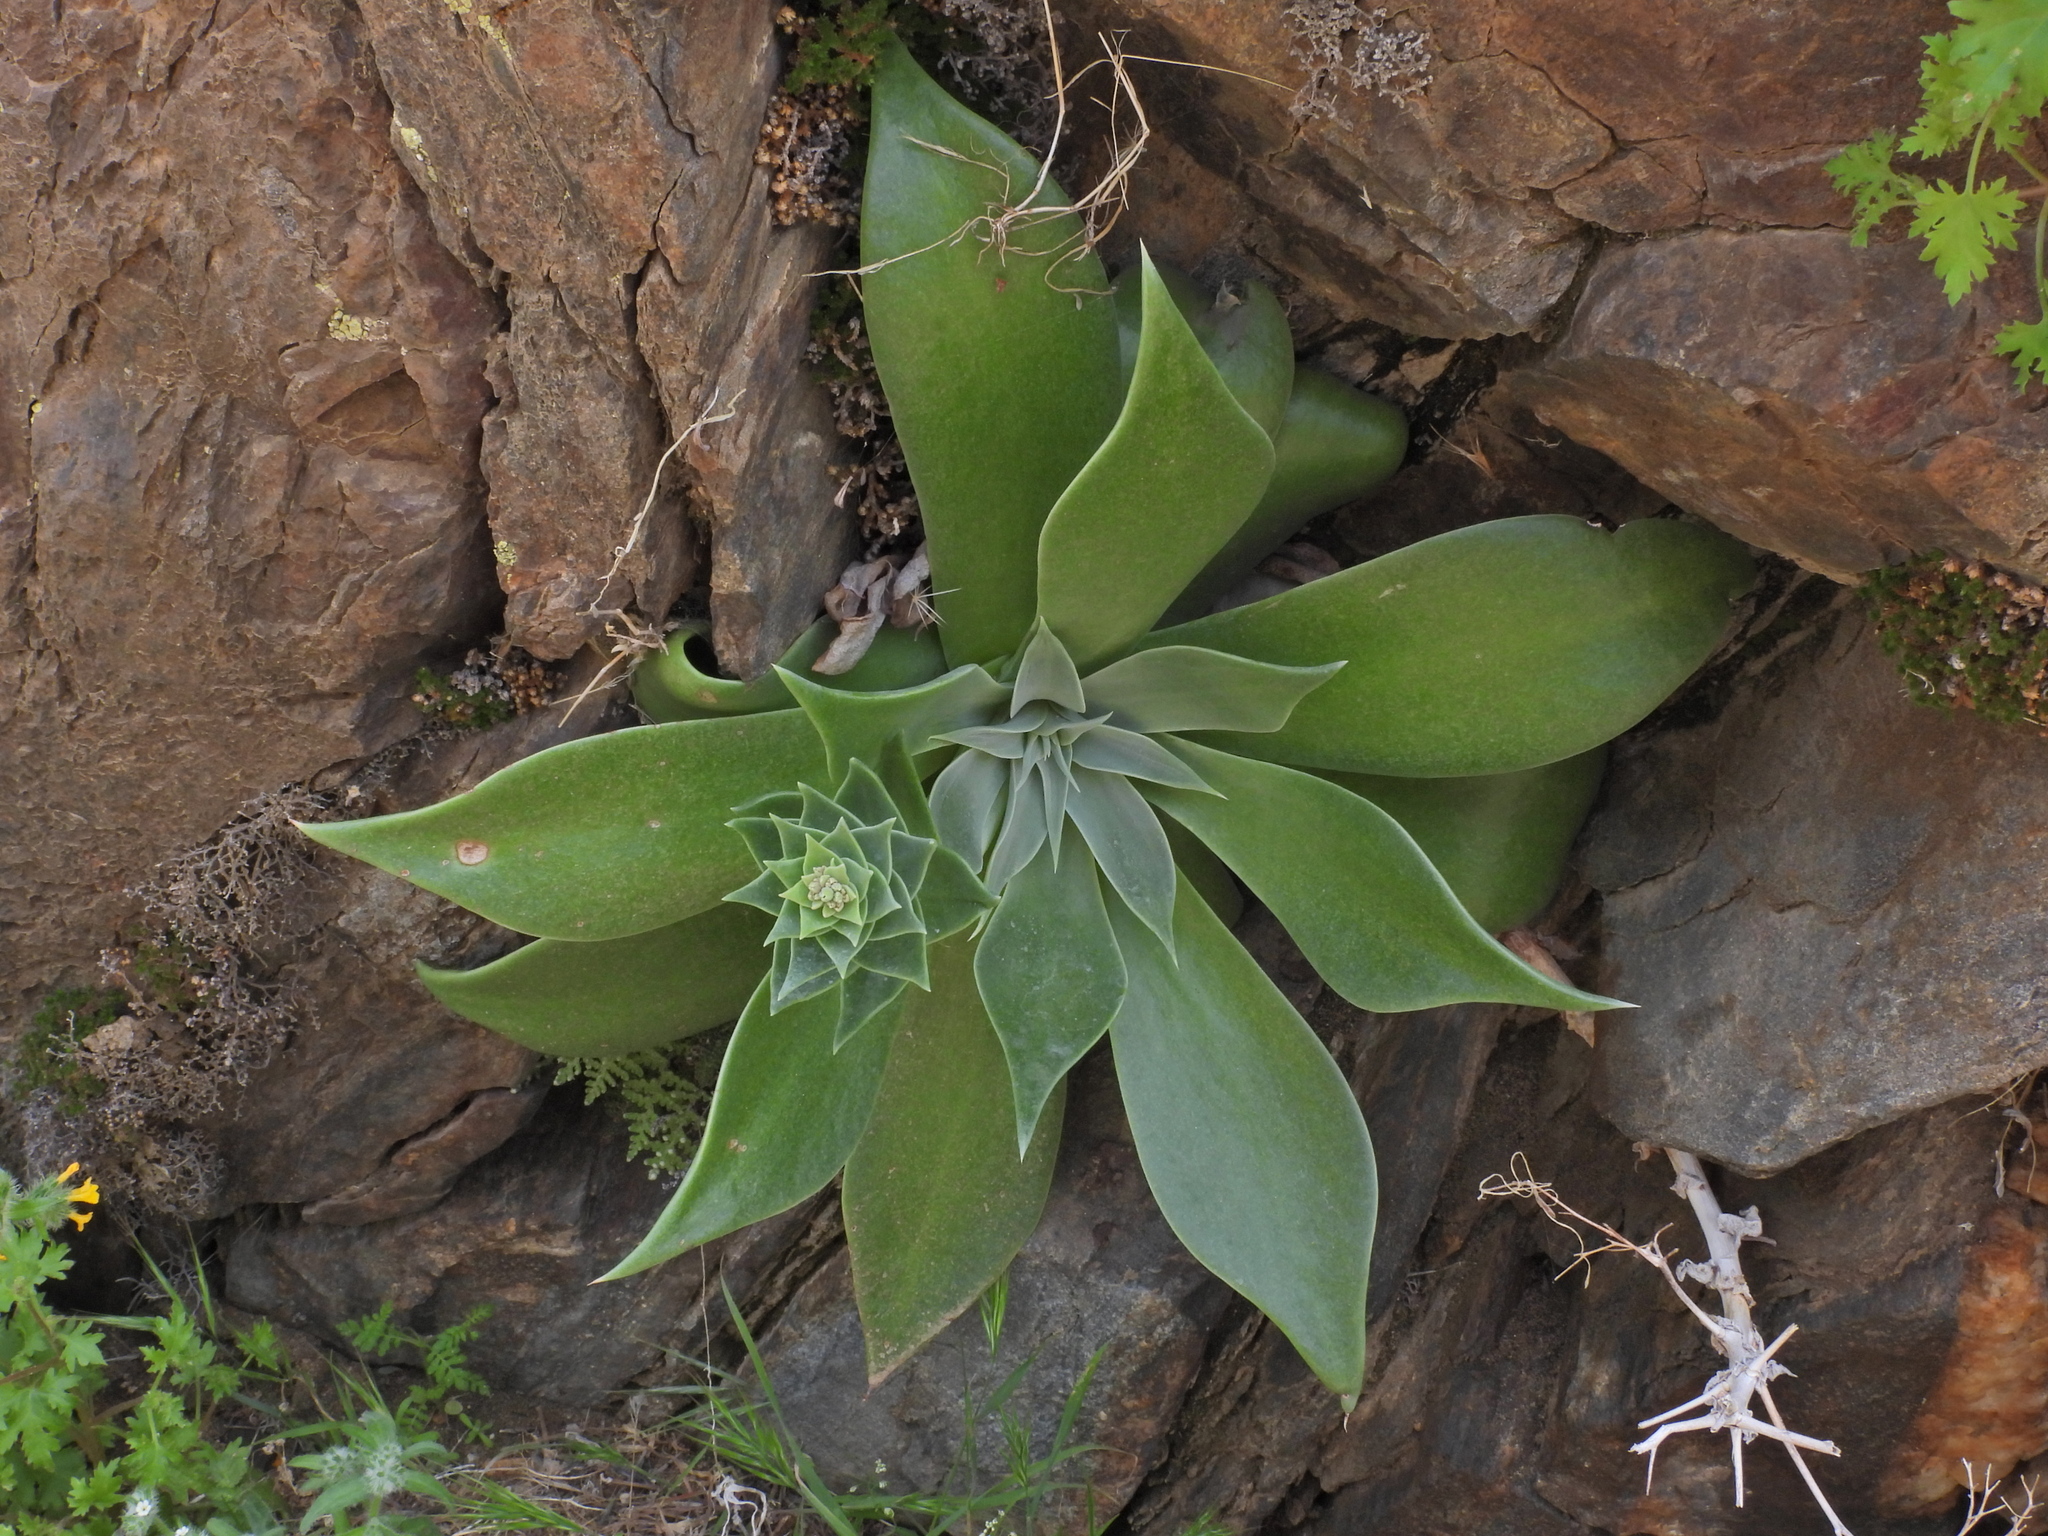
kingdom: Plantae
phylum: Tracheophyta
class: Magnoliopsida
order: Saxifragales
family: Crassulaceae
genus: Dudleya
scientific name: Dudleya arizonica
